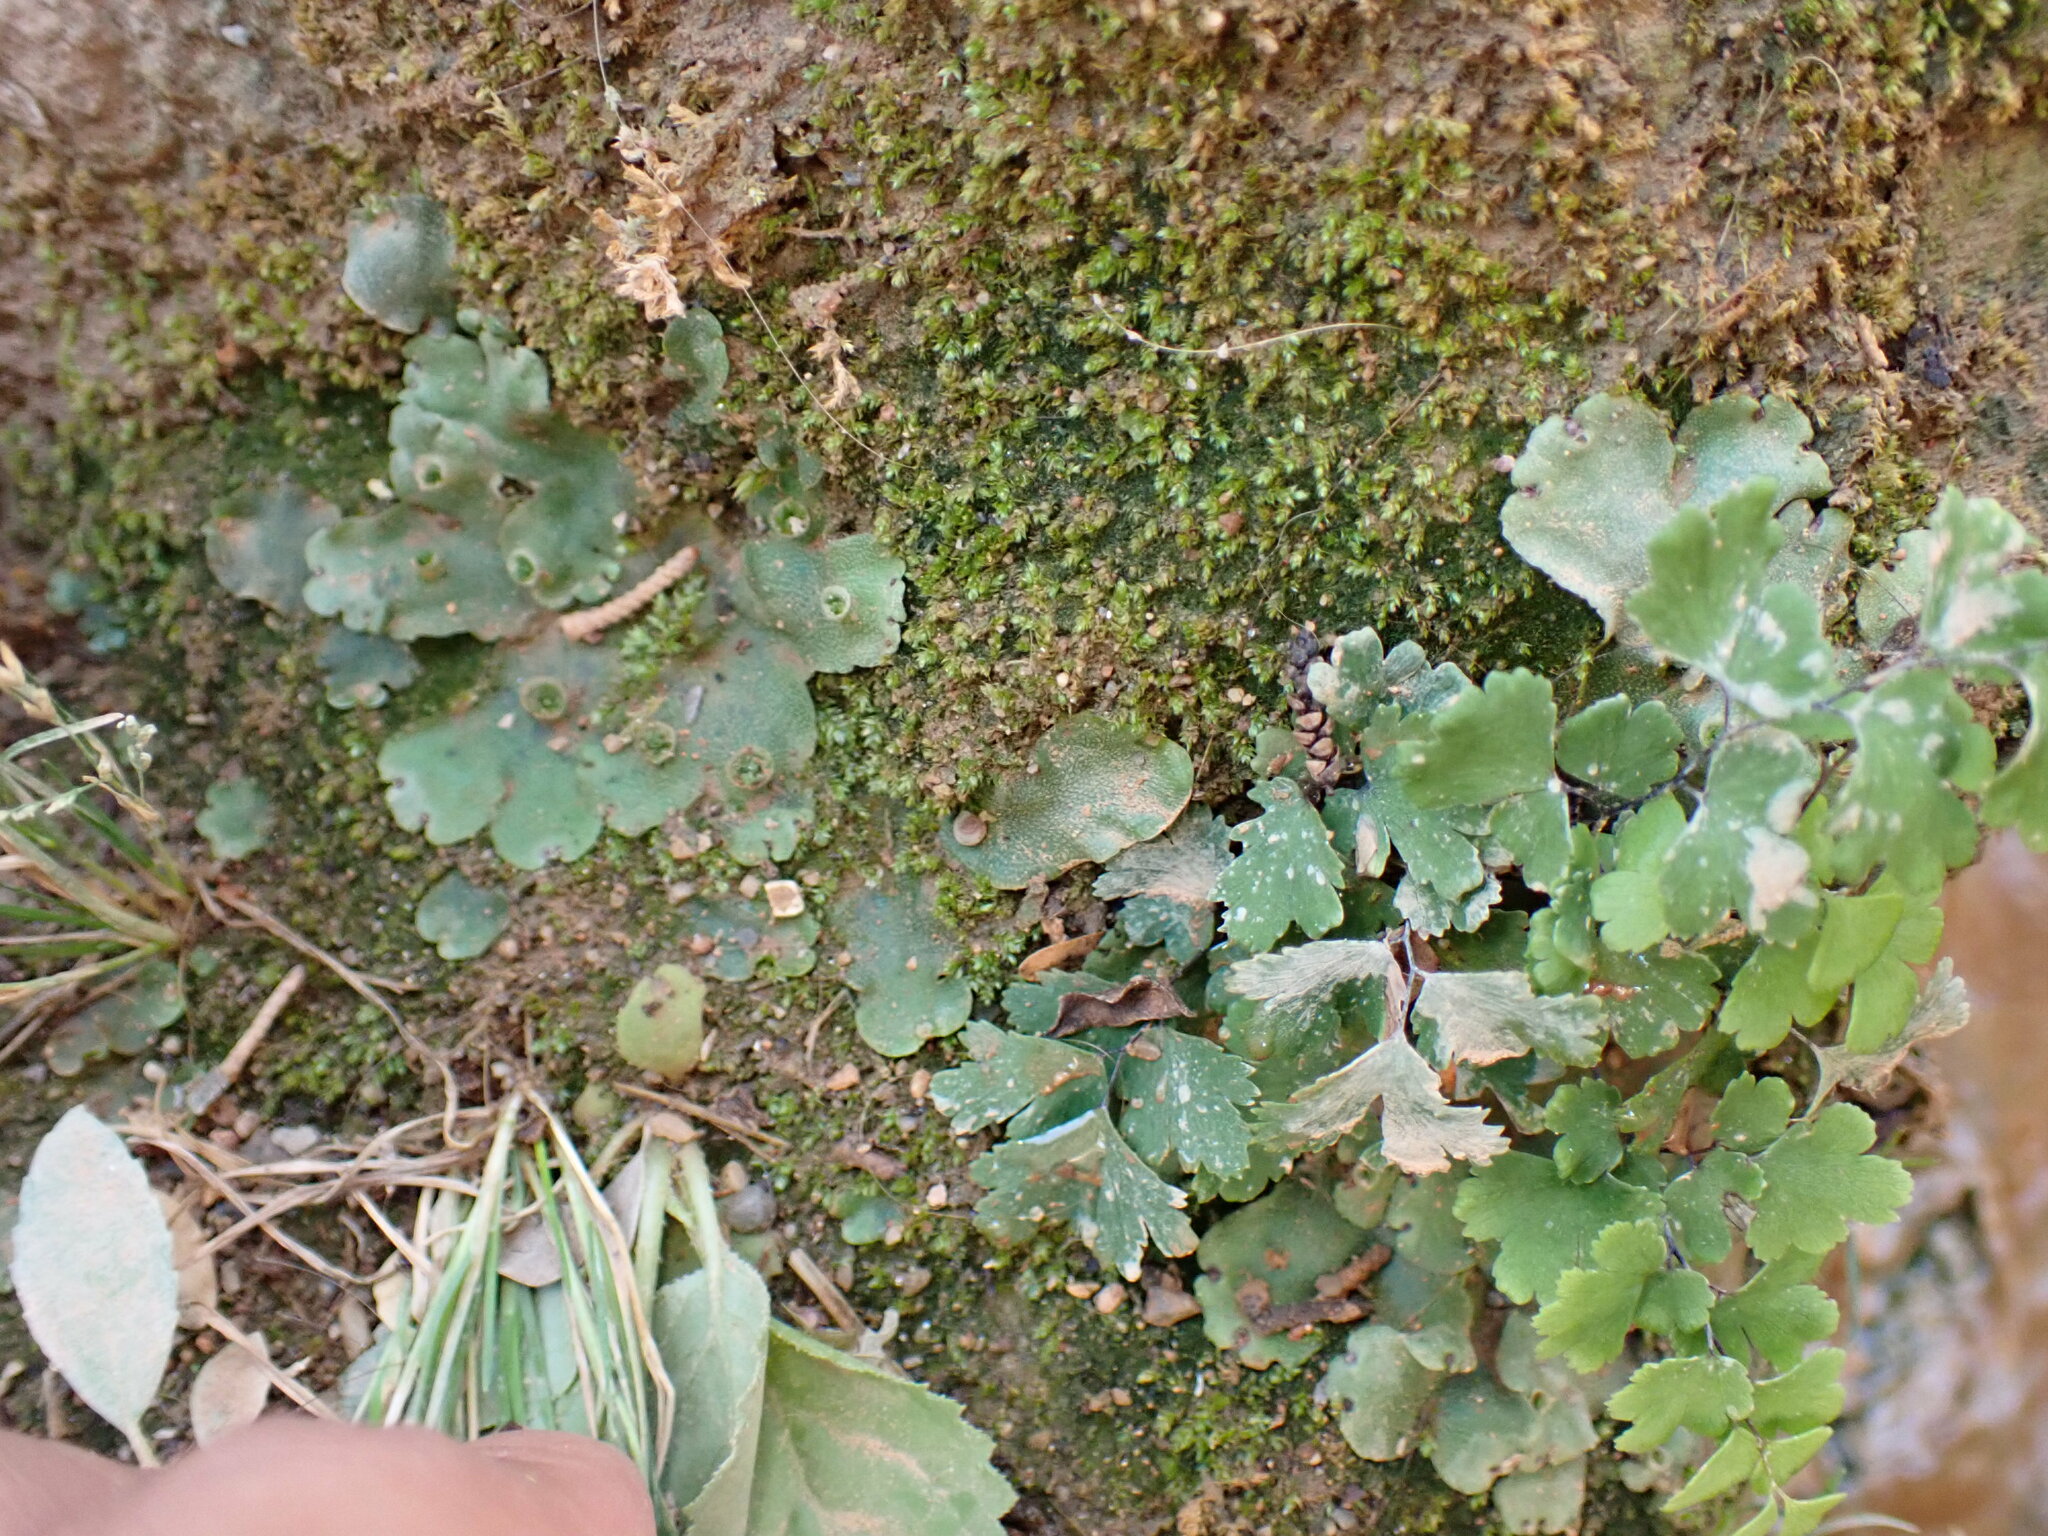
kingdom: Plantae
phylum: Marchantiophyta
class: Marchantiopsida
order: Marchantiales
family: Marchantiaceae
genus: Marchantia
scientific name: Marchantia paleacea
